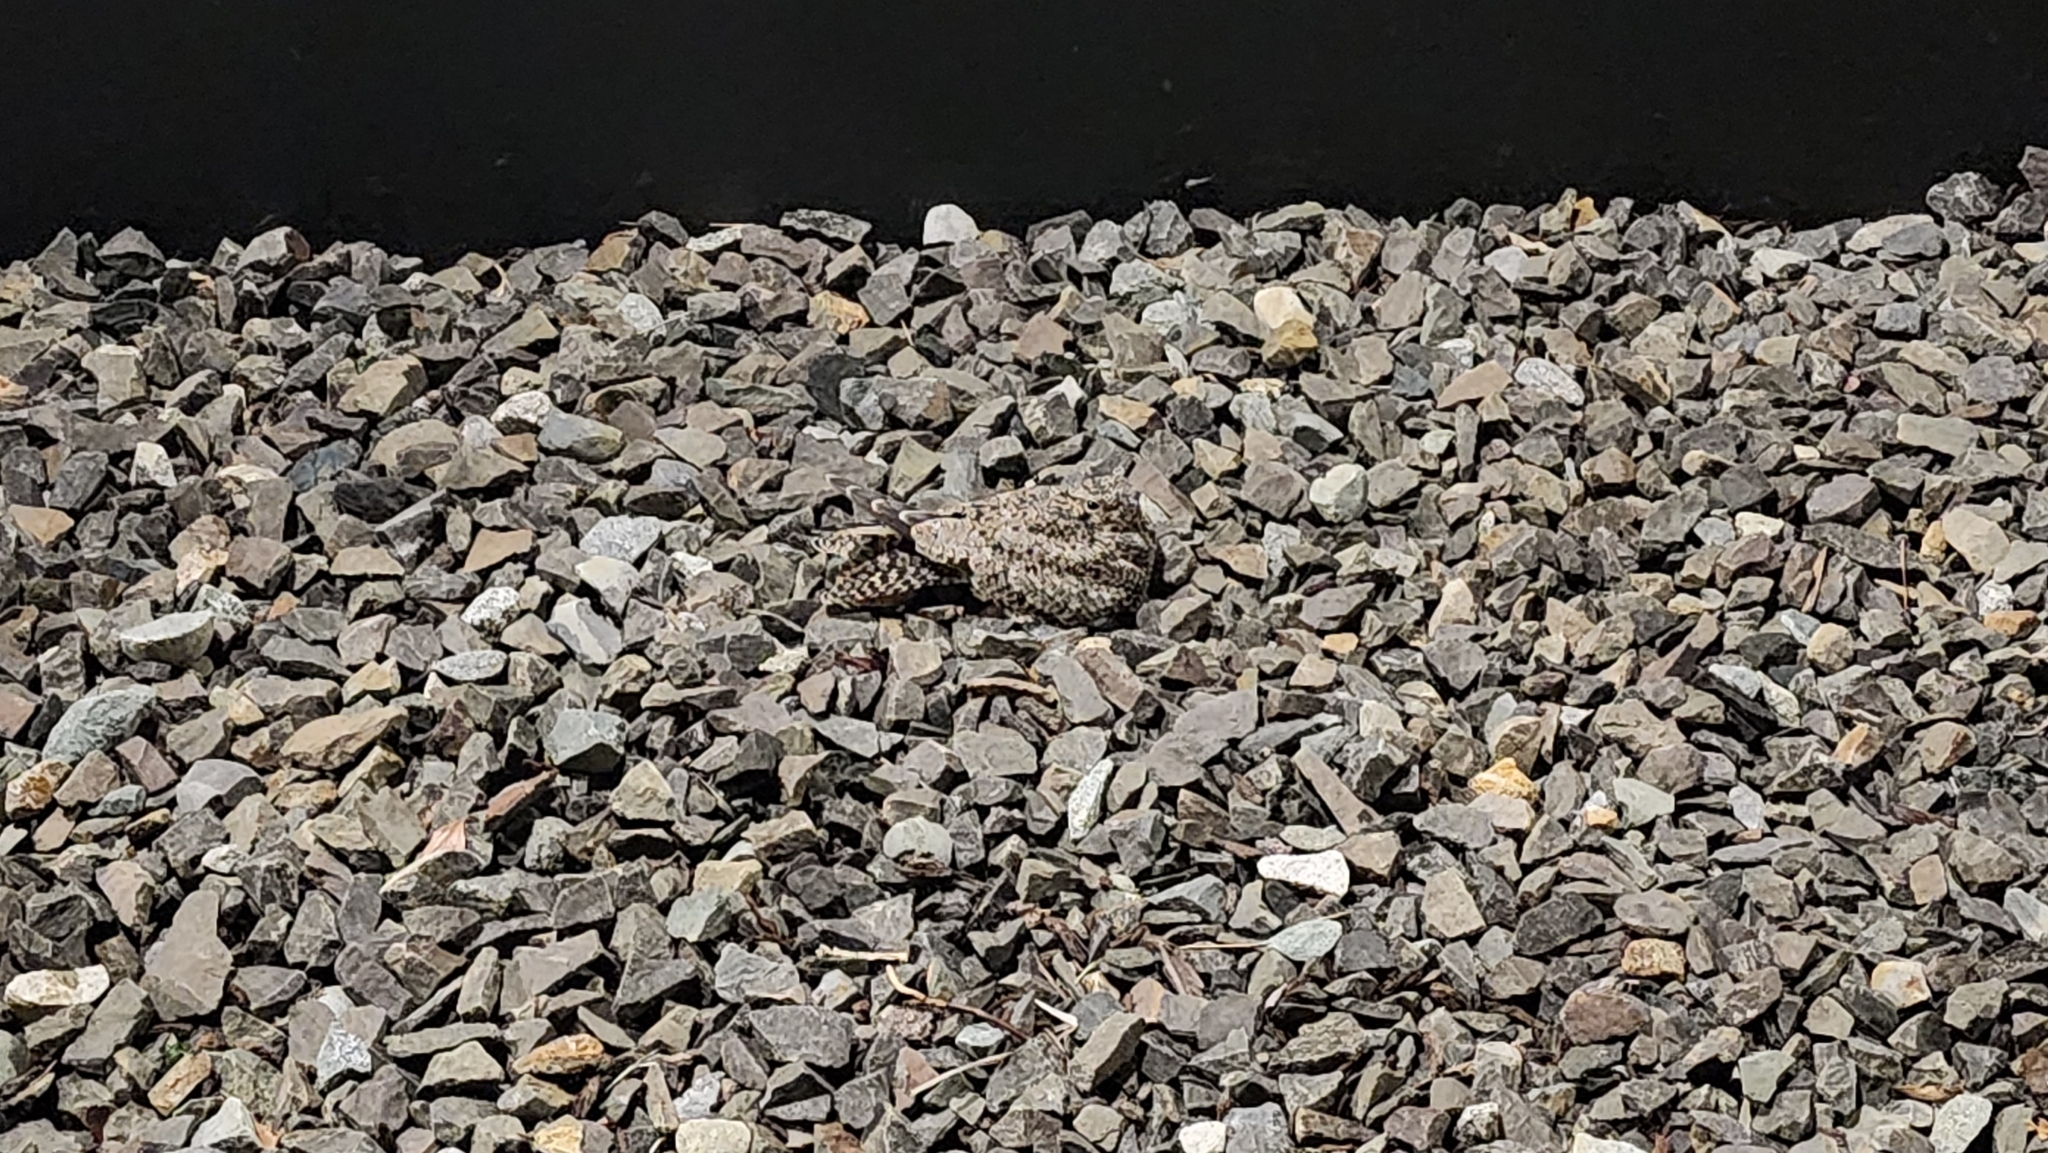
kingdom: Animalia
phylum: Chordata
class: Aves
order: Caprimulgiformes
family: Caprimulgidae
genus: Chordeiles
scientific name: Chordeiles minor
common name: Common nighthawk
